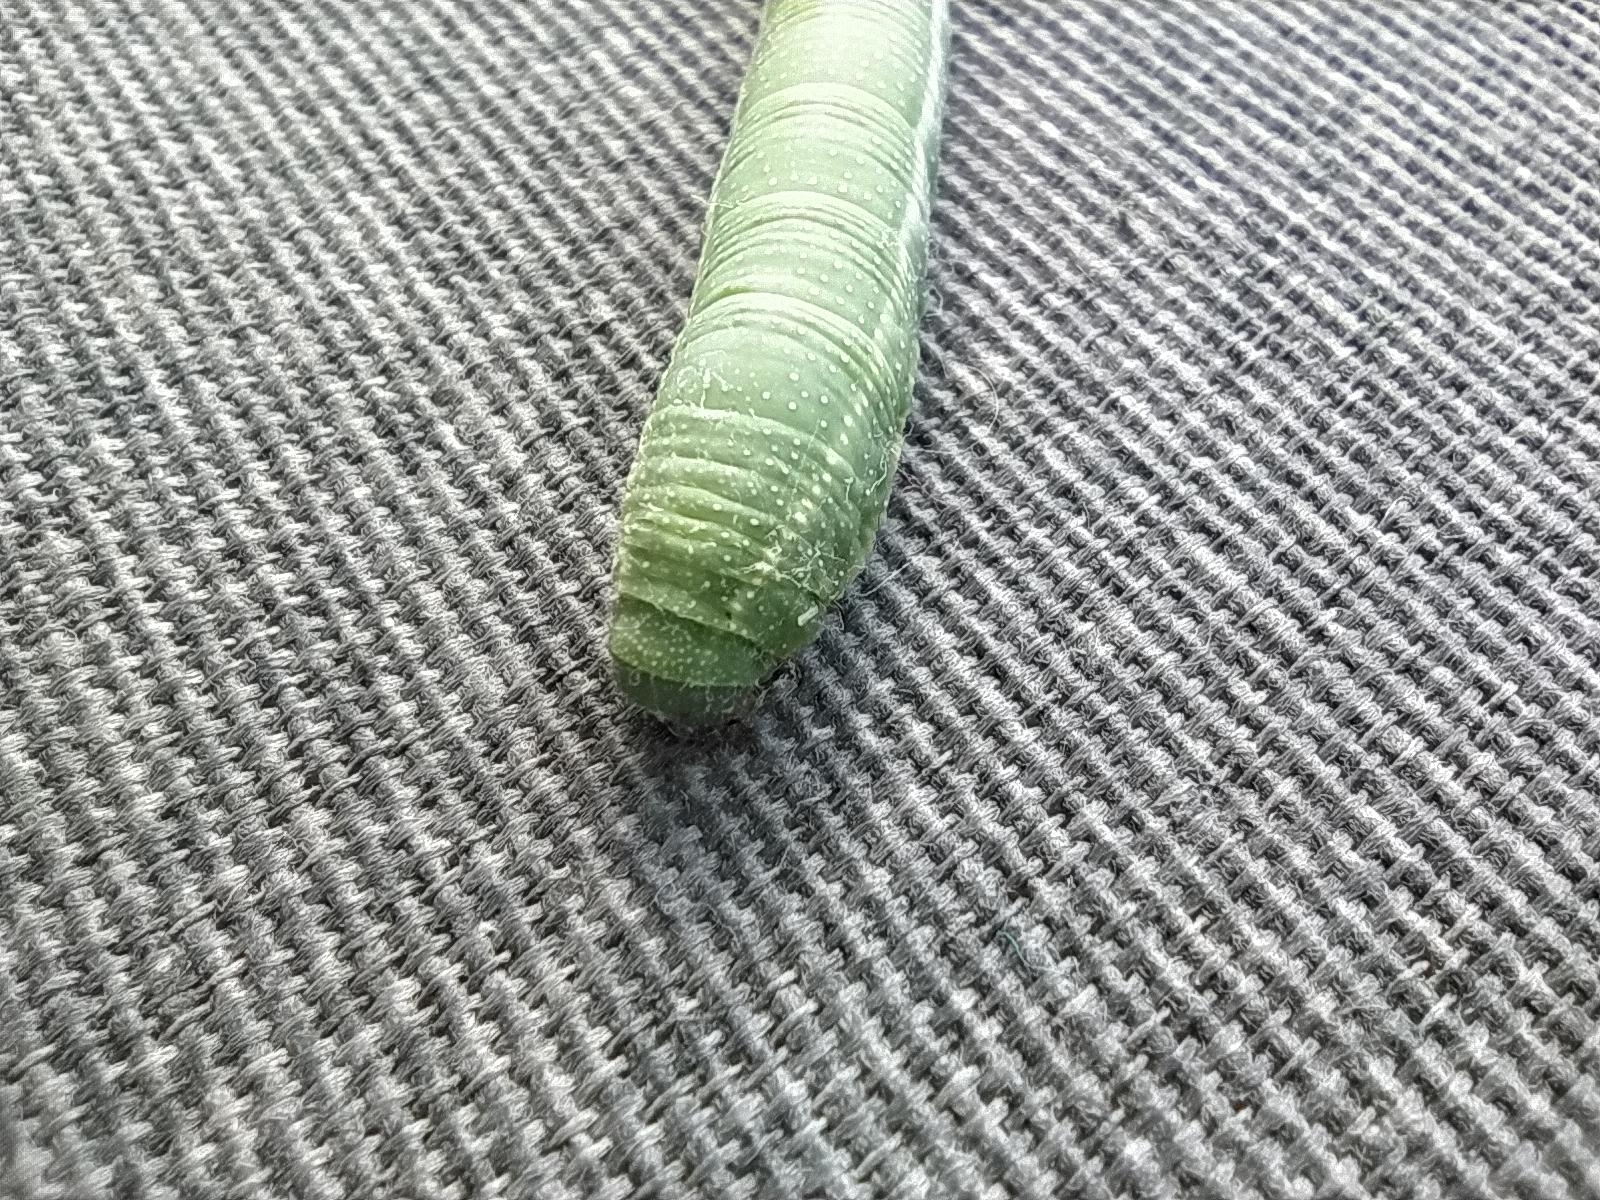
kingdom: Animalia
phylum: Arthropoda
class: Insecta
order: Lepidoptera
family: Sphingidae
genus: Macroglossum
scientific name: Macroglossum stellatarum
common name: Humming-bird hawk-moth
